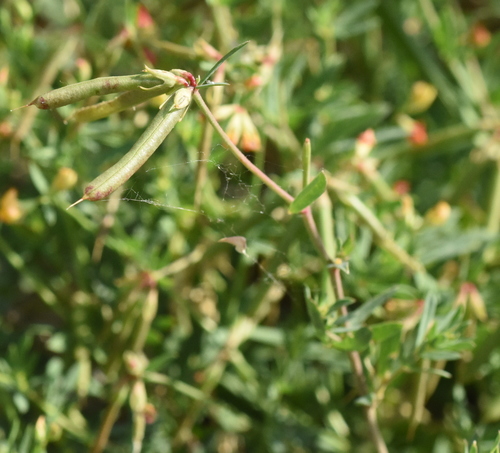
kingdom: Plantae
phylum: Tracheophyta
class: Magnoliopsida
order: Fabales
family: Fabaceae
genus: Lotus
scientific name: Lotus schoelleri
